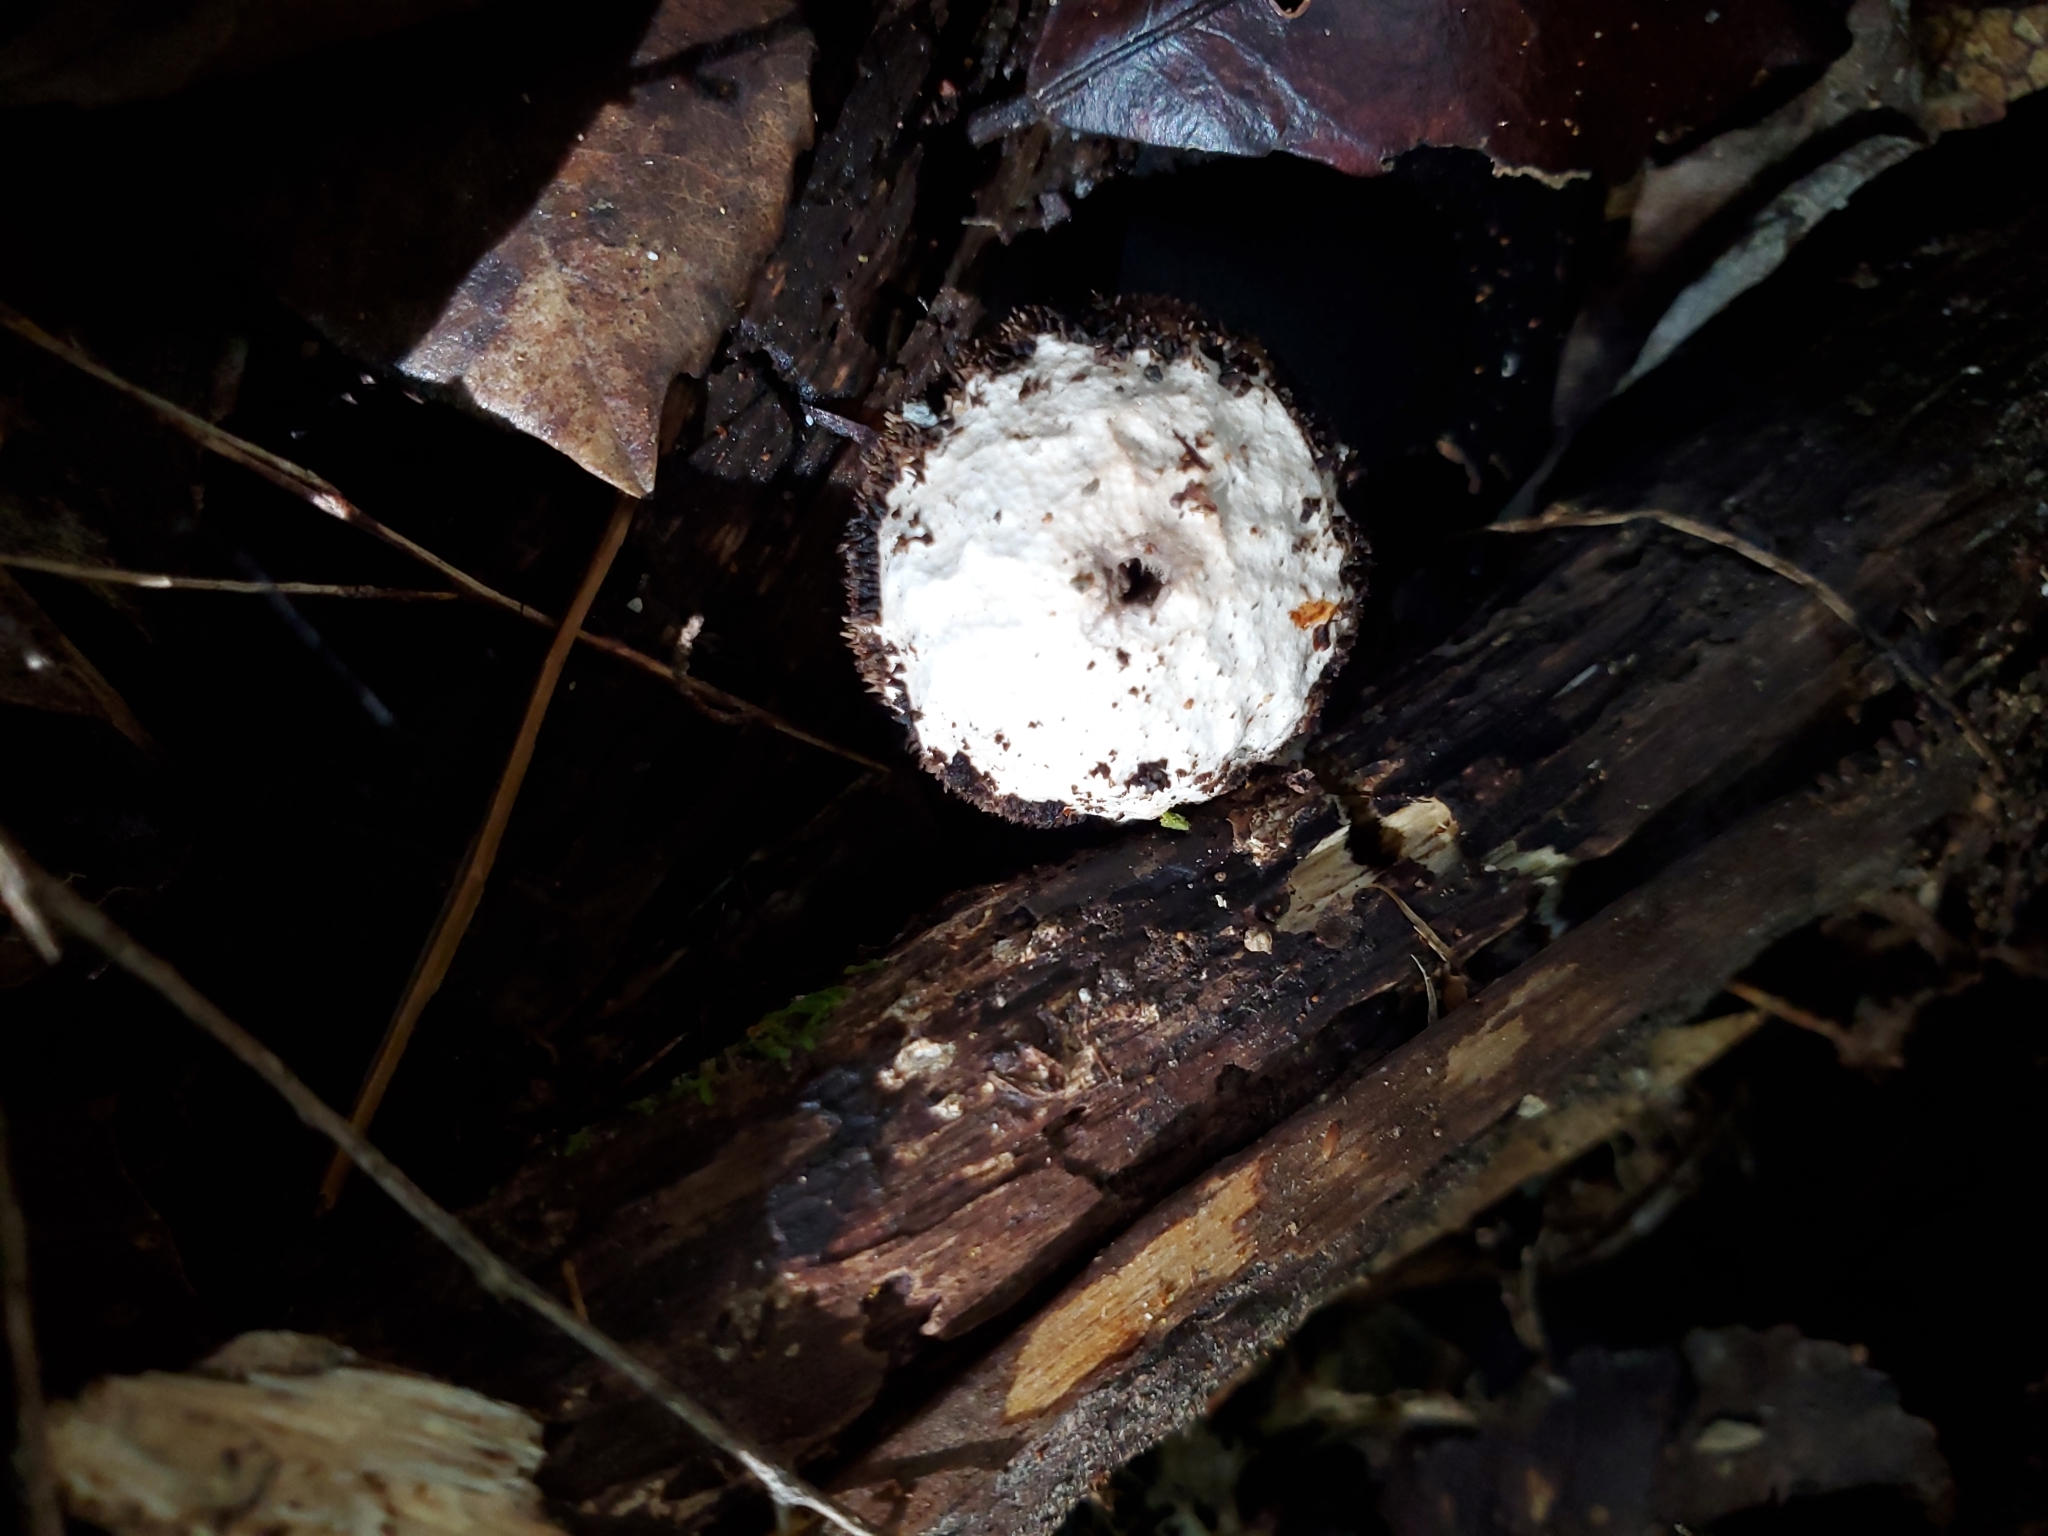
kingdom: Fungi
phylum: Basidiomycota
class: Agaricomycetes
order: Agaricales
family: Lycoperdaceae
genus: Lycoperdon
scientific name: Lycoperdon compactum
